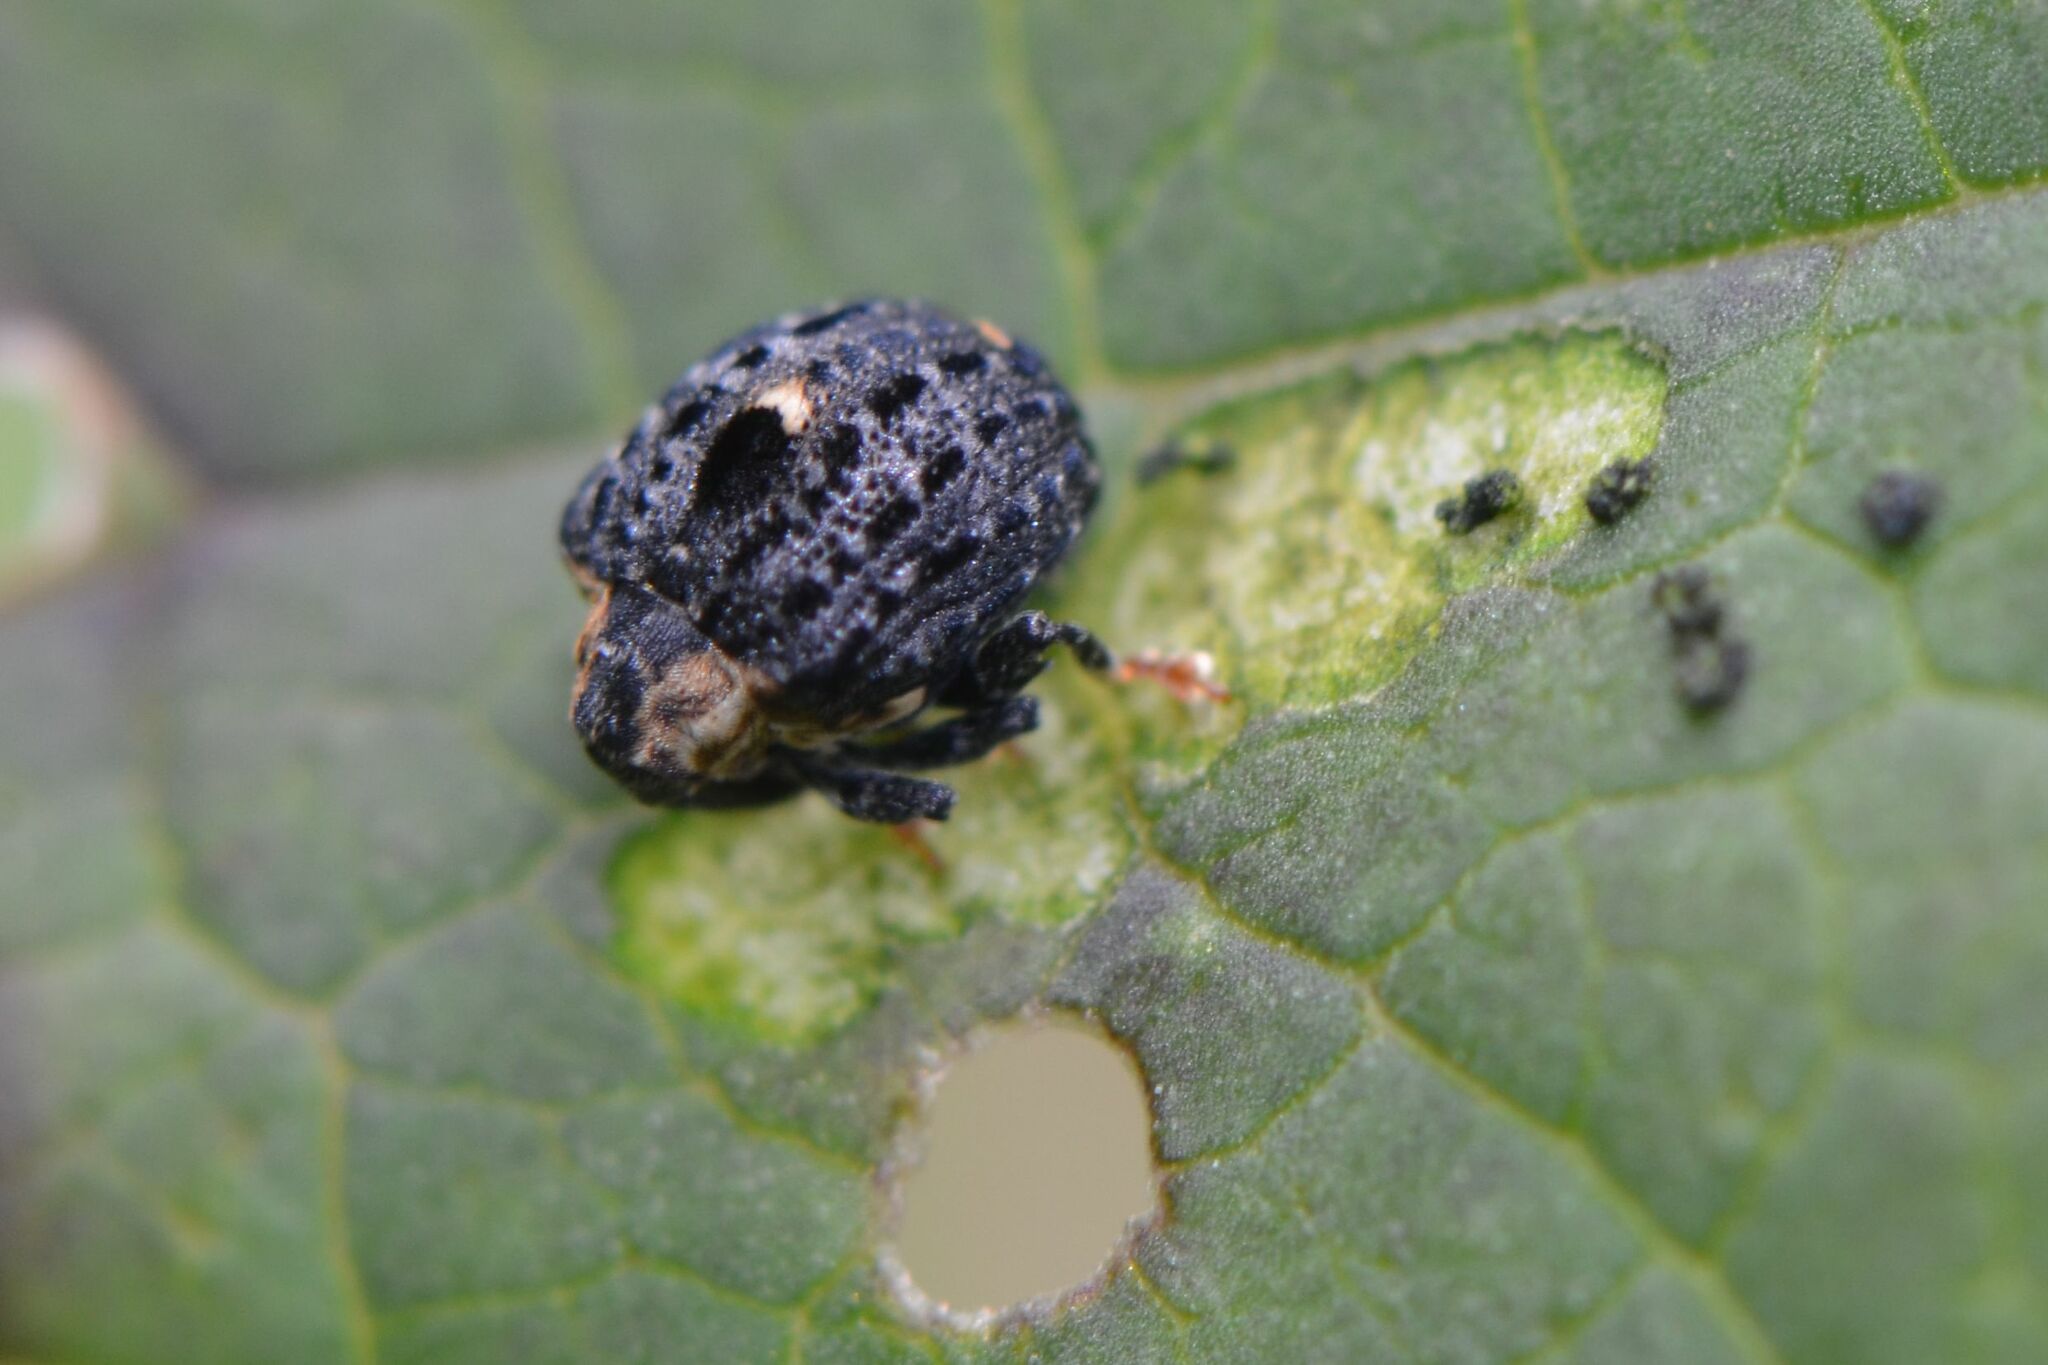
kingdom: Animalia
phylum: Arthropoda
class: Insecta
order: Coleoptera
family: Curculionidae
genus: Cionus
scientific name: Cionus tuberculosus
